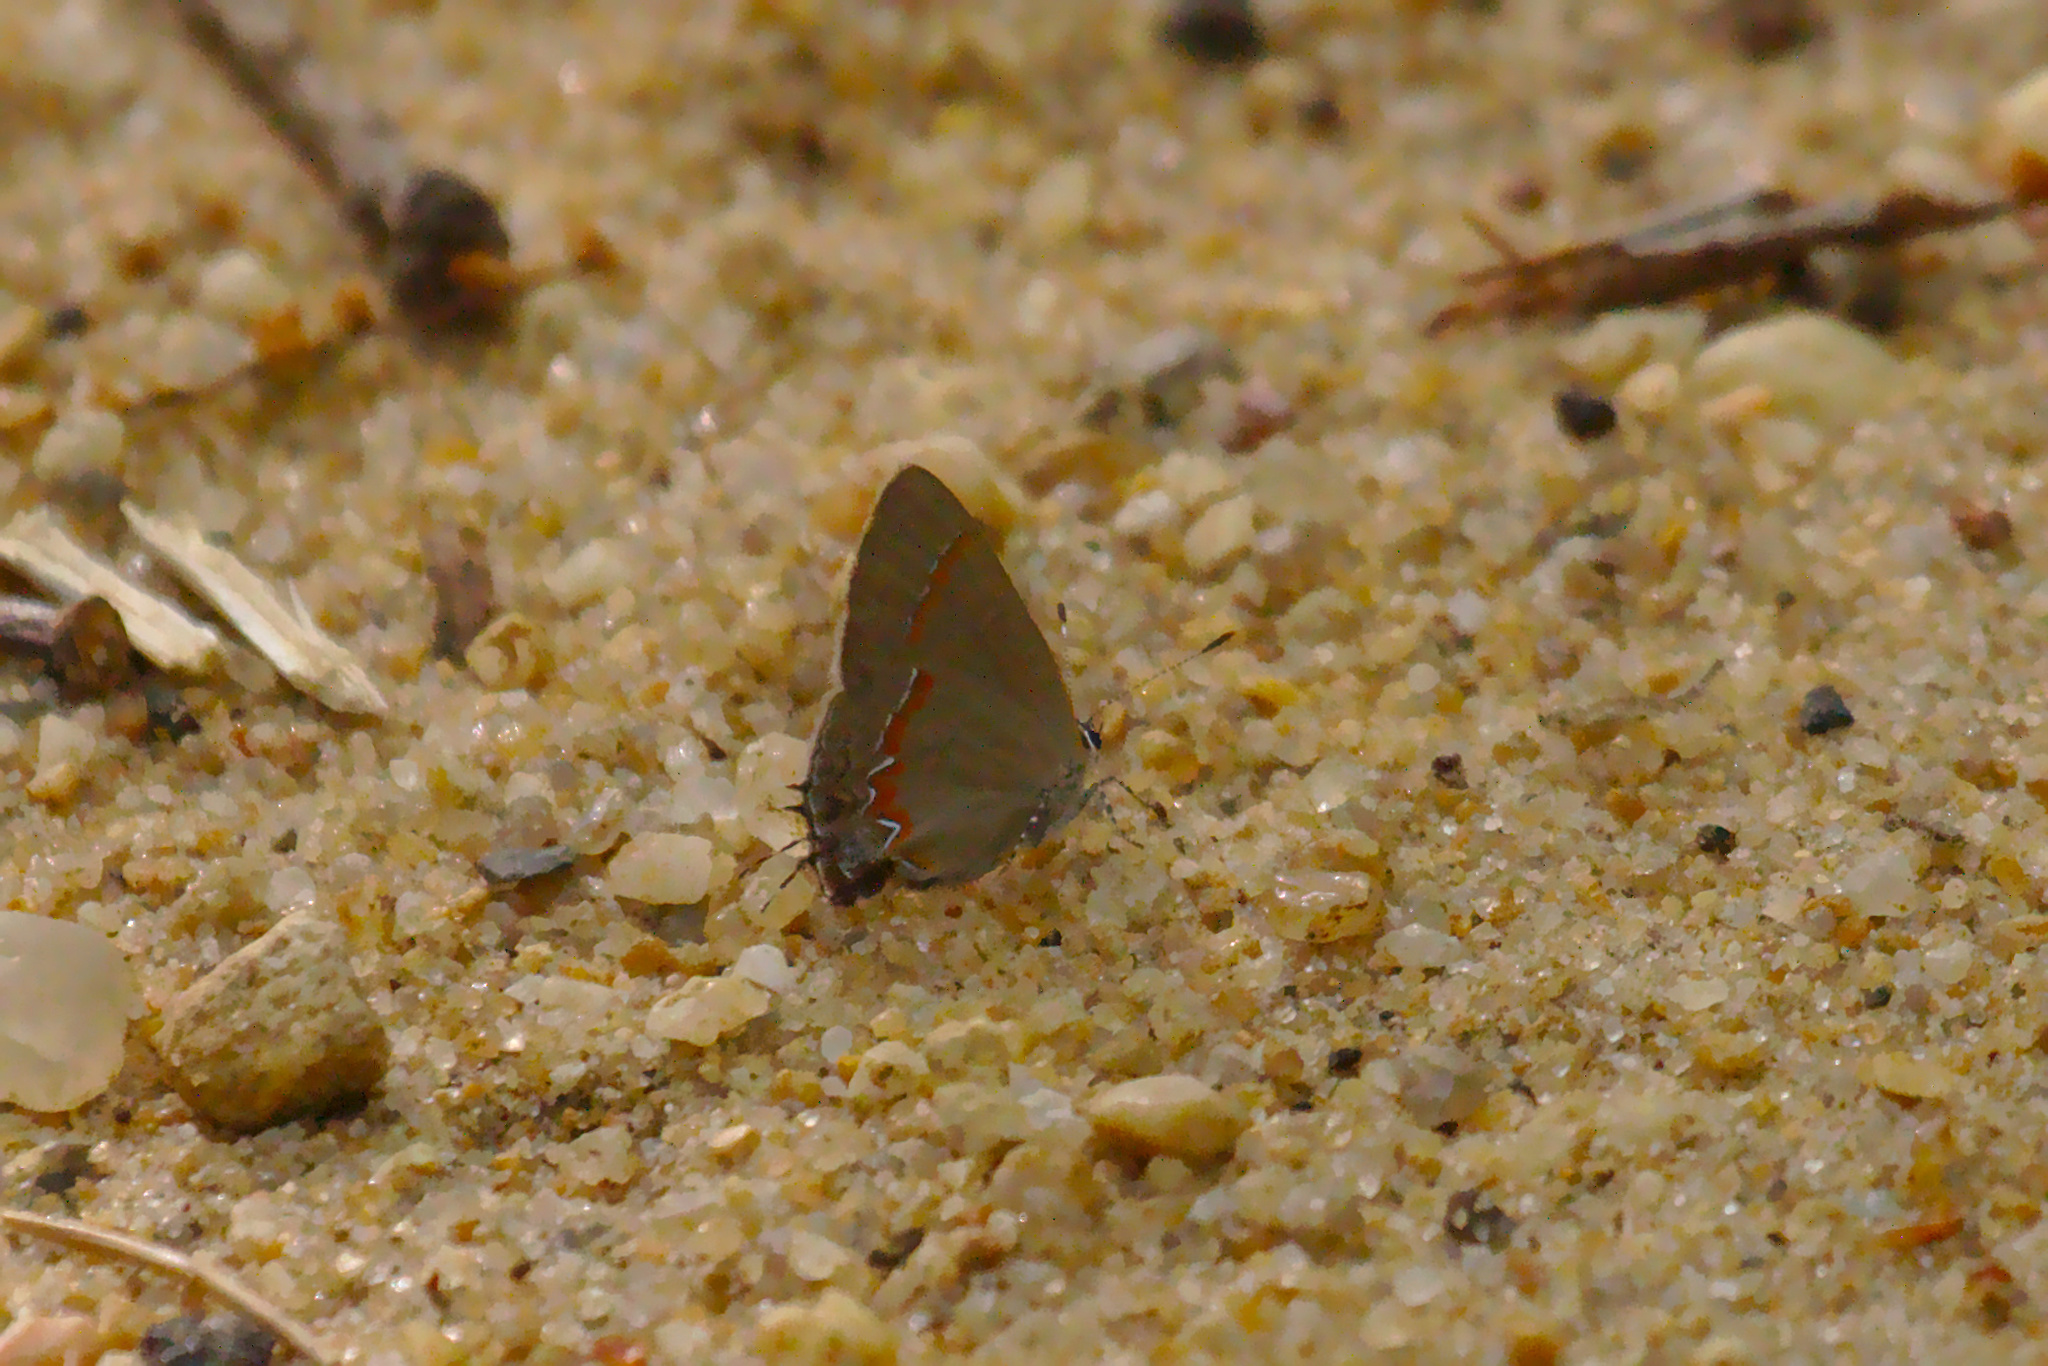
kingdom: Animalia
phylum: Arthropoda
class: Insecta
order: Lepidoptera
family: Lycaenidae
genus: Calycopis
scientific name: Calycopis cecrops
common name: Red-banded hairstreak
